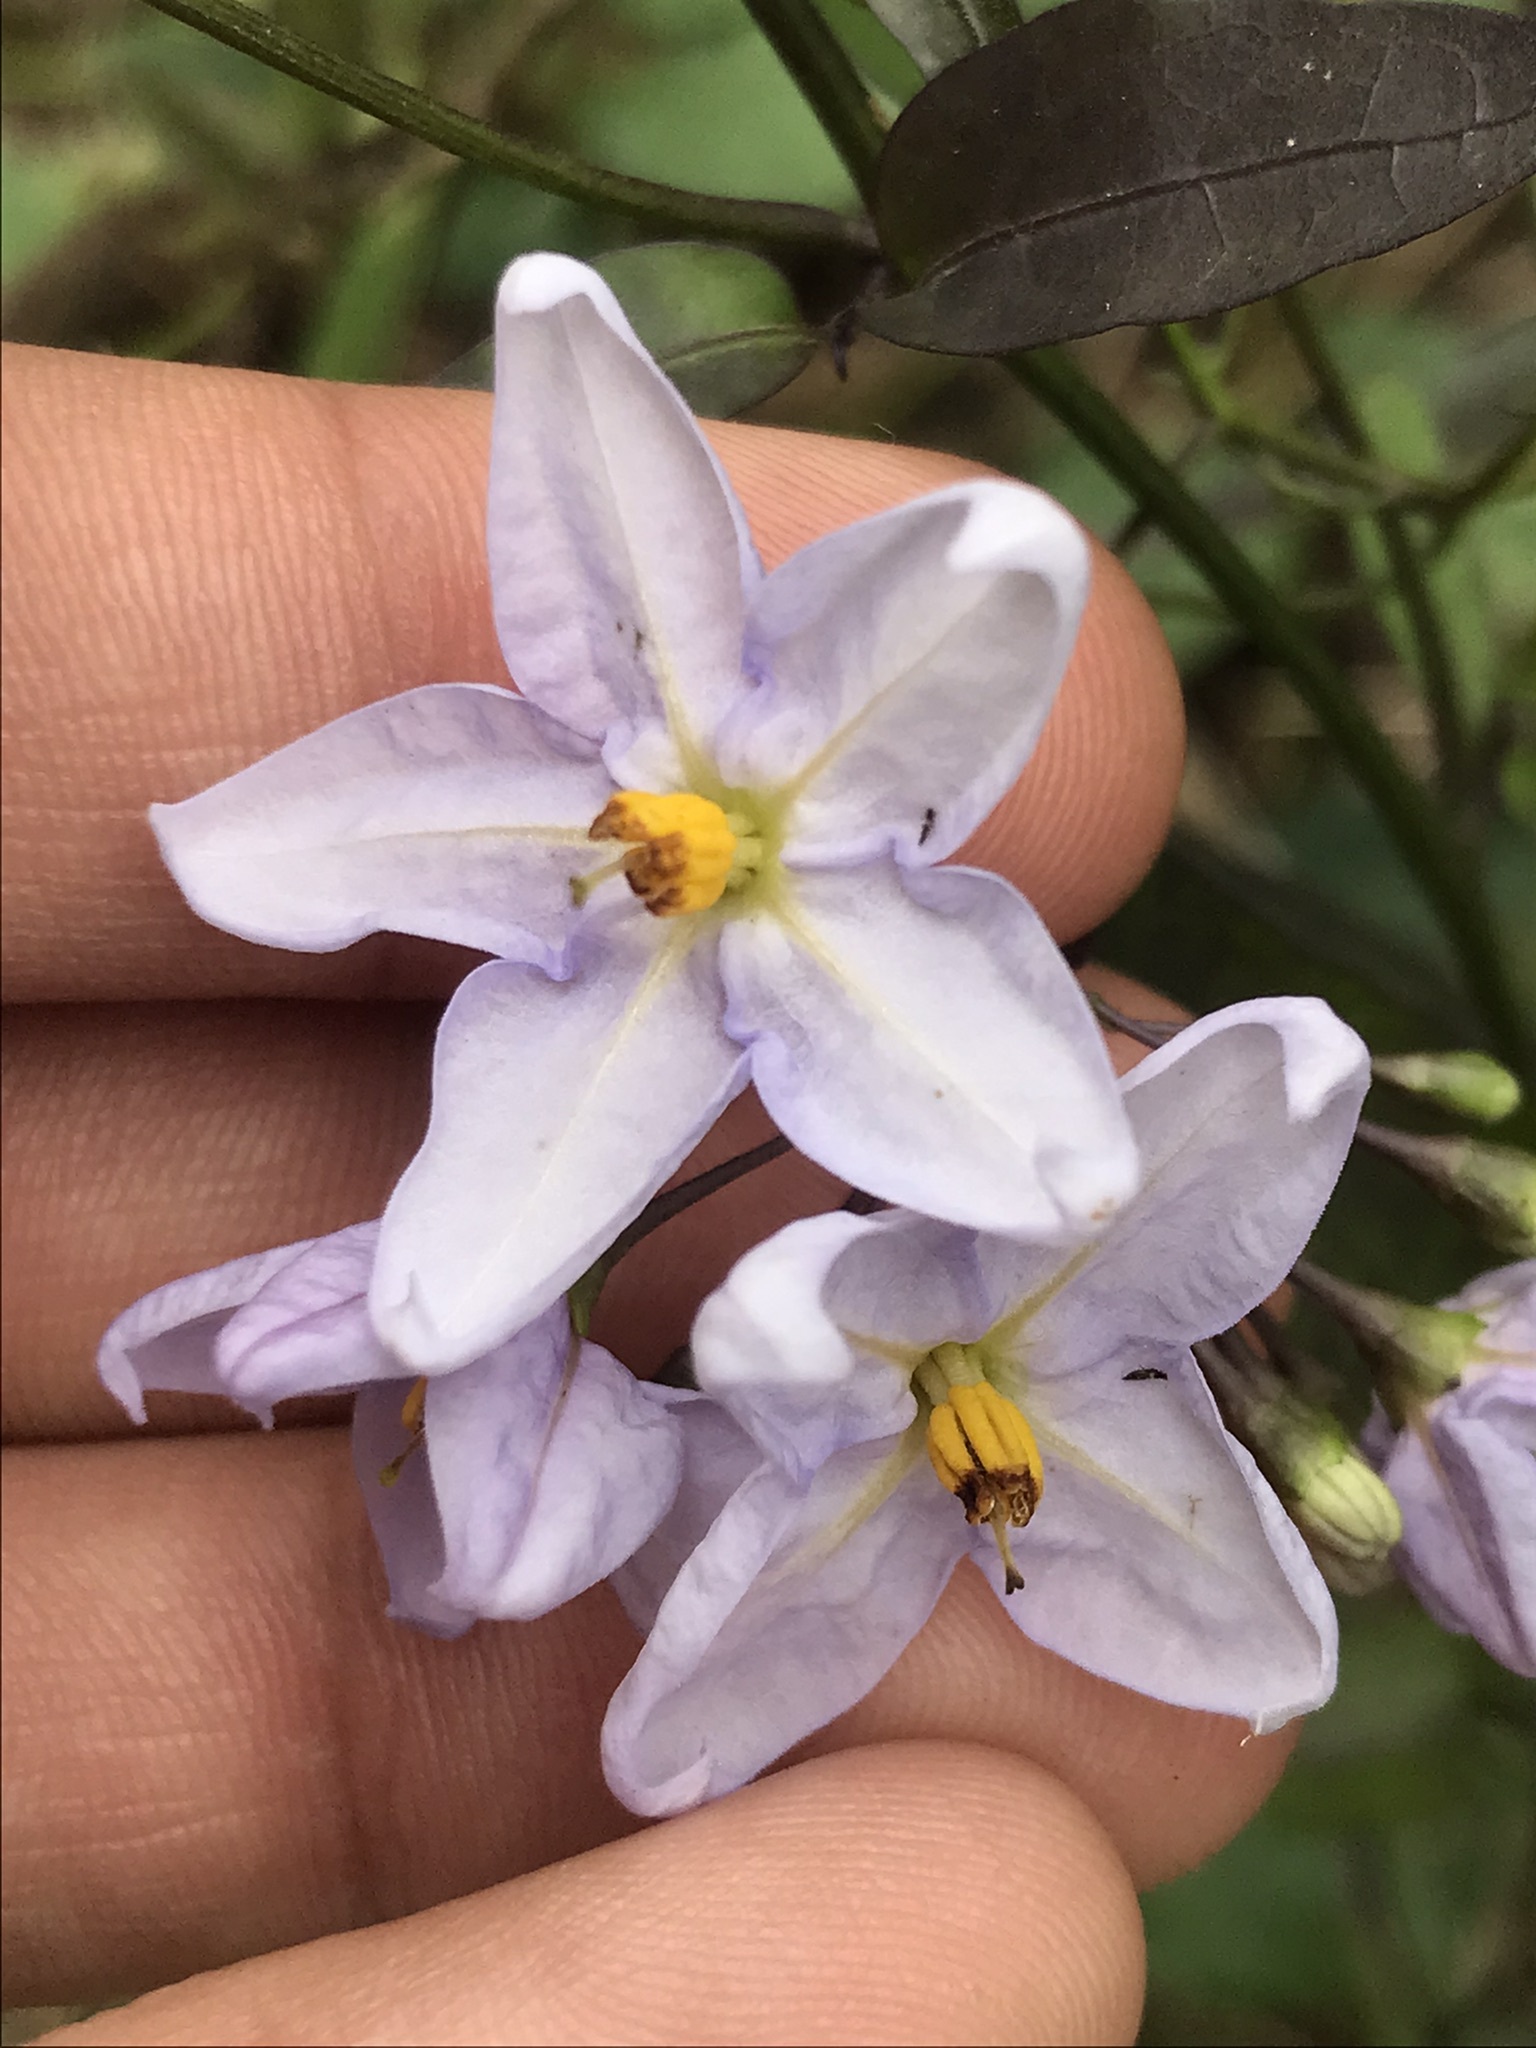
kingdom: Plantae
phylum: Tracheophyta
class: Magnoliopsida
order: Solanales
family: Solanaceae
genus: Solanum
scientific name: Solanum laxum
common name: Nightshade
